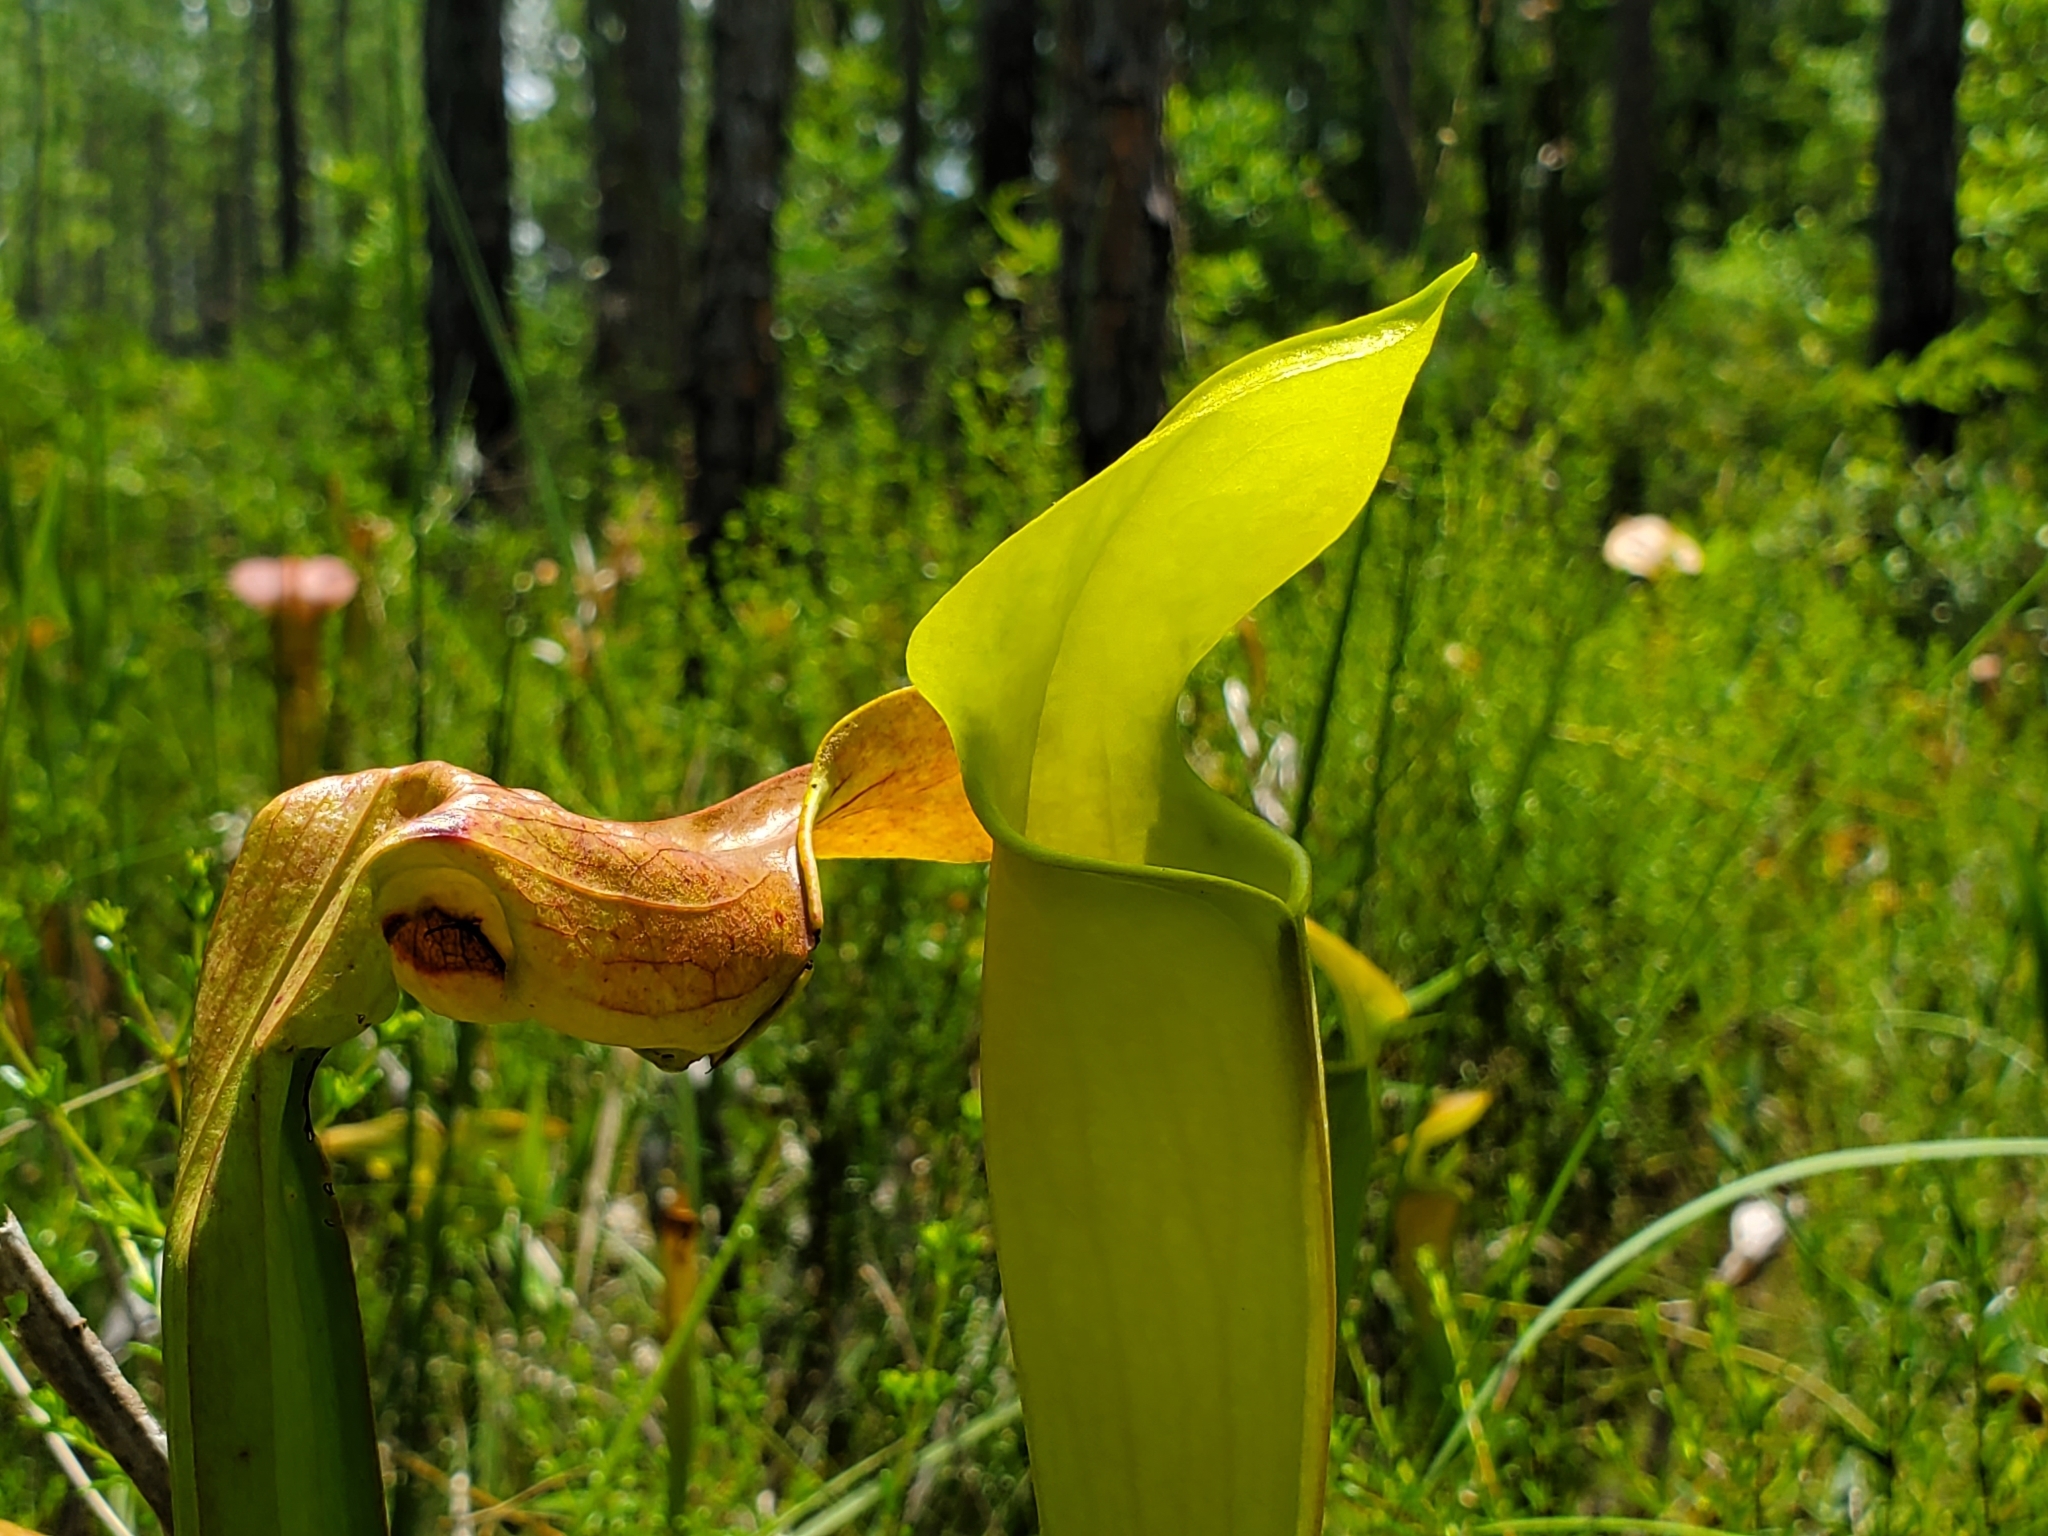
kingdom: Plantae
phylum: Tracheophyta
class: Magnoliopsida
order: Ericales
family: Sarraceniaceae
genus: Sarracenia
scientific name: Sarracenia alata
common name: Yellow trumpets
